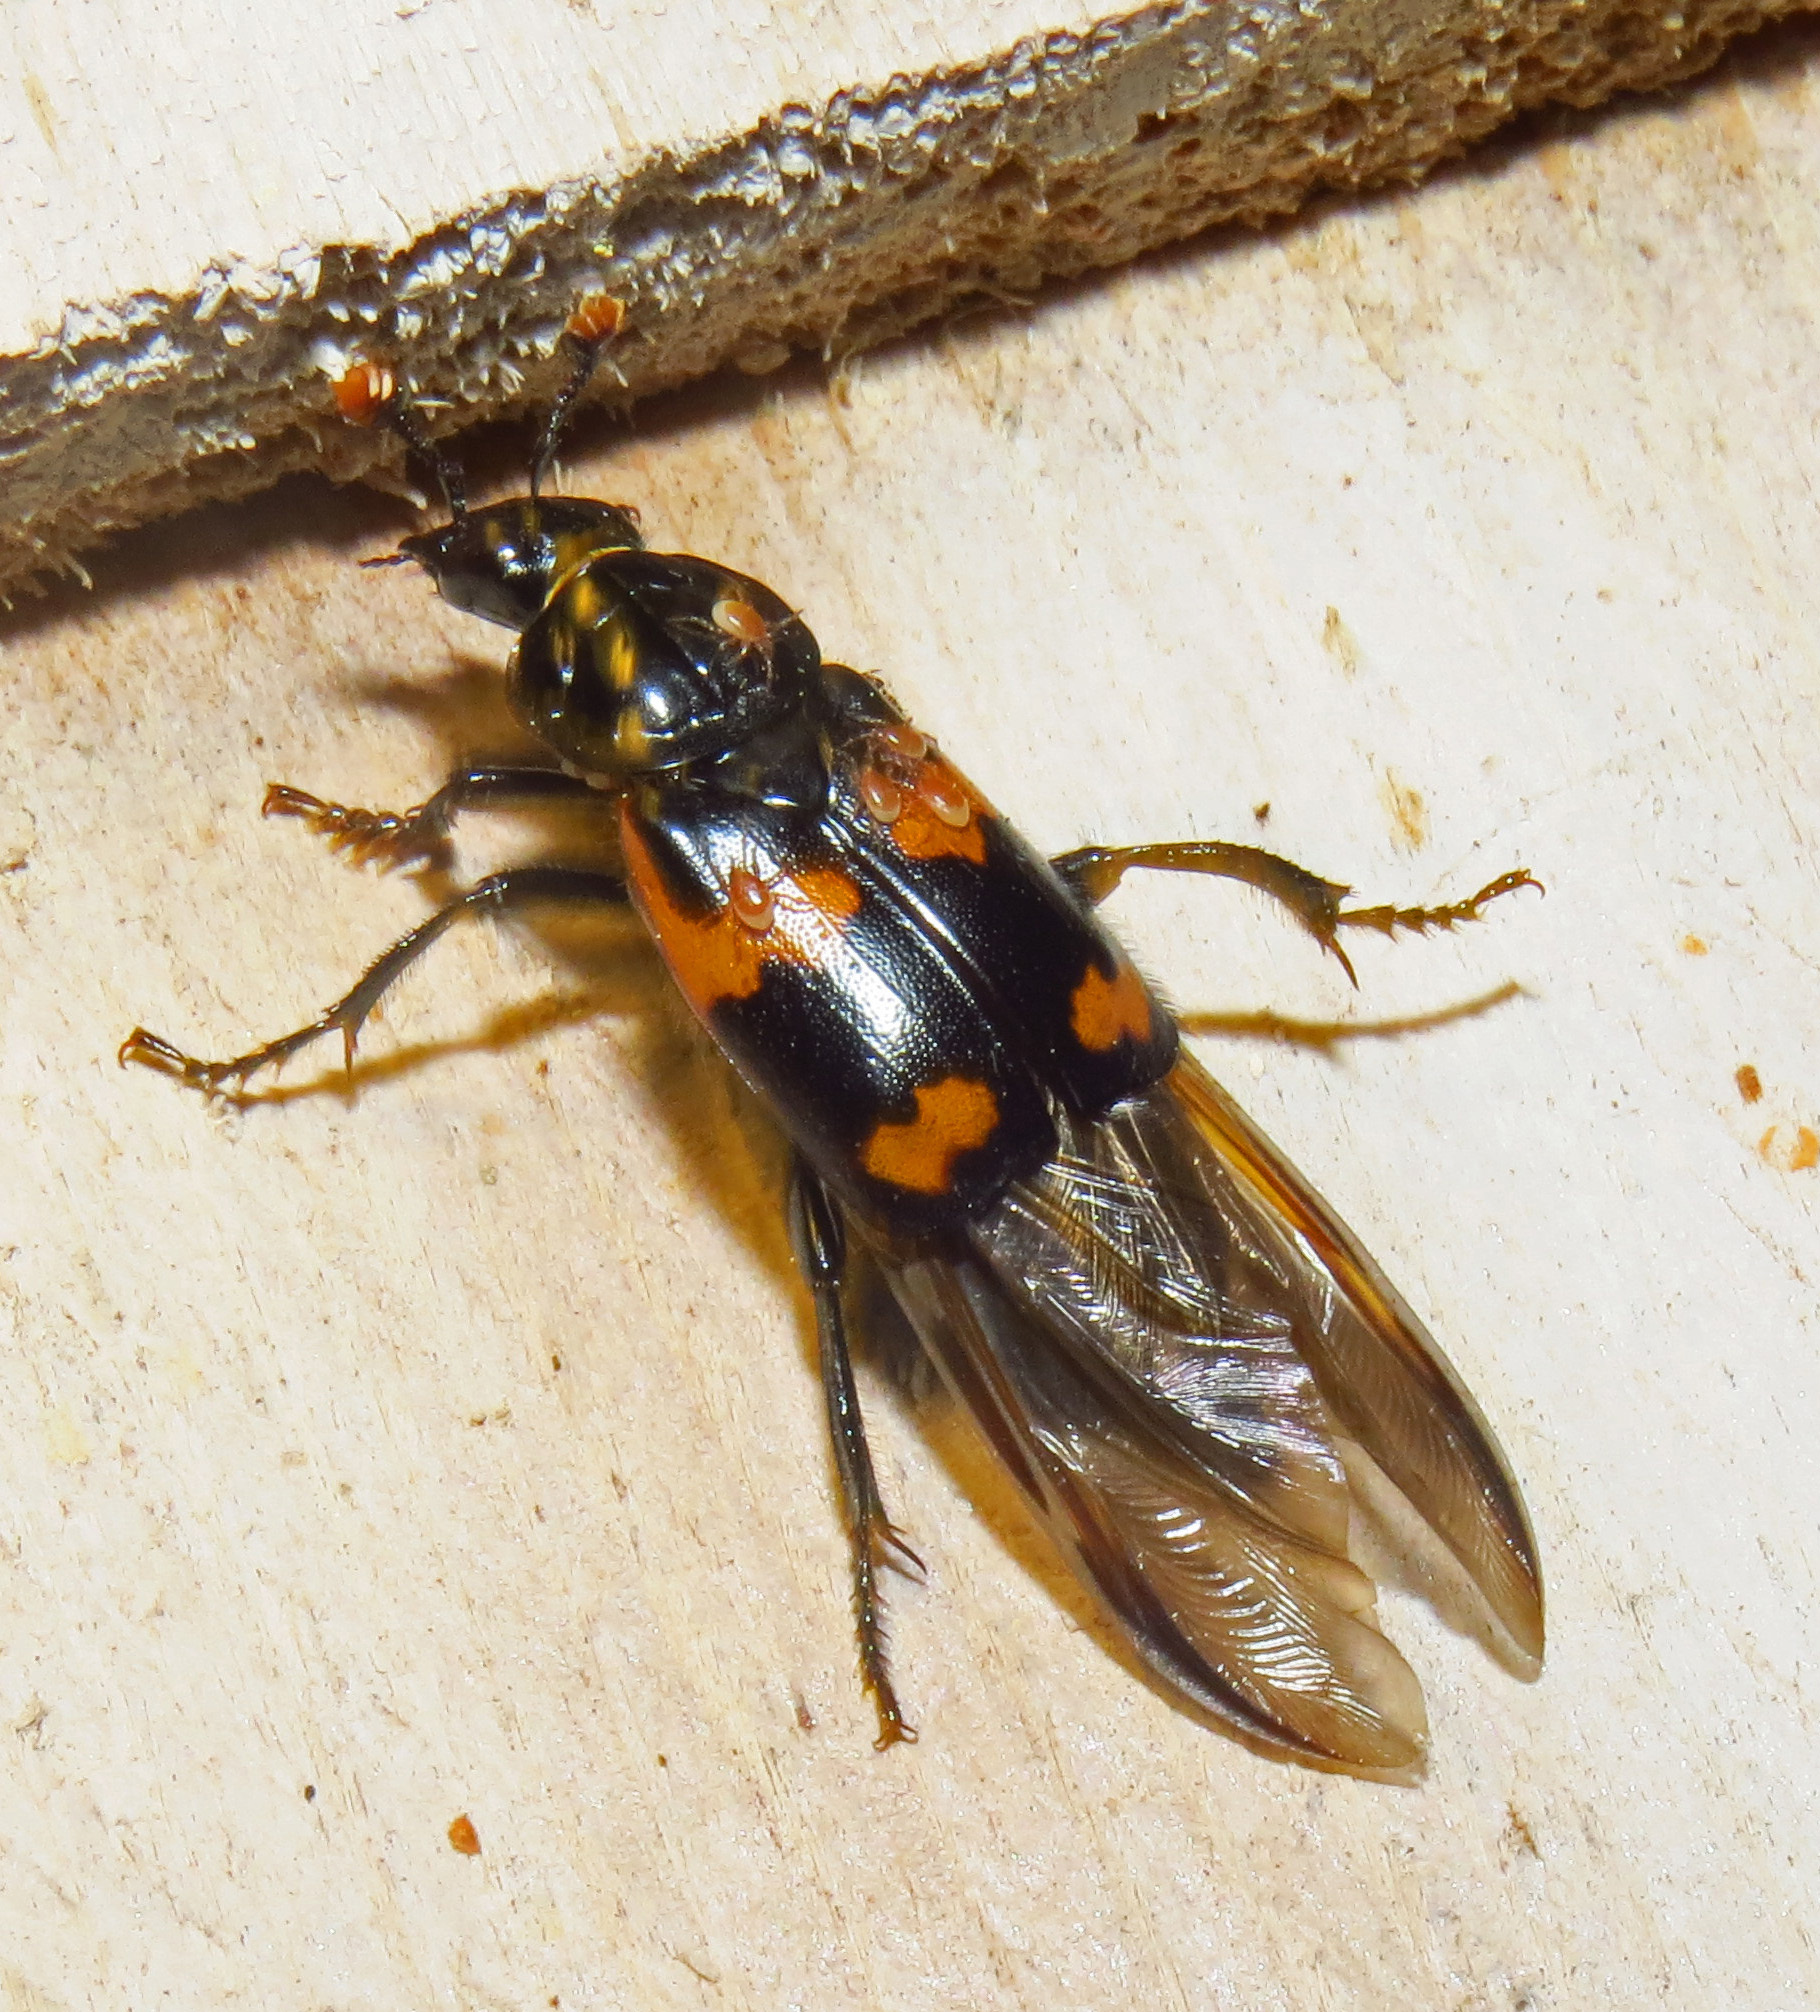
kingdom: Animalia
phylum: Arthropoda
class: Insecta
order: Coleoptera
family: Staphylinidae
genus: Nicrophorus
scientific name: Nicrophorus sayi
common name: Say's burying beetle
